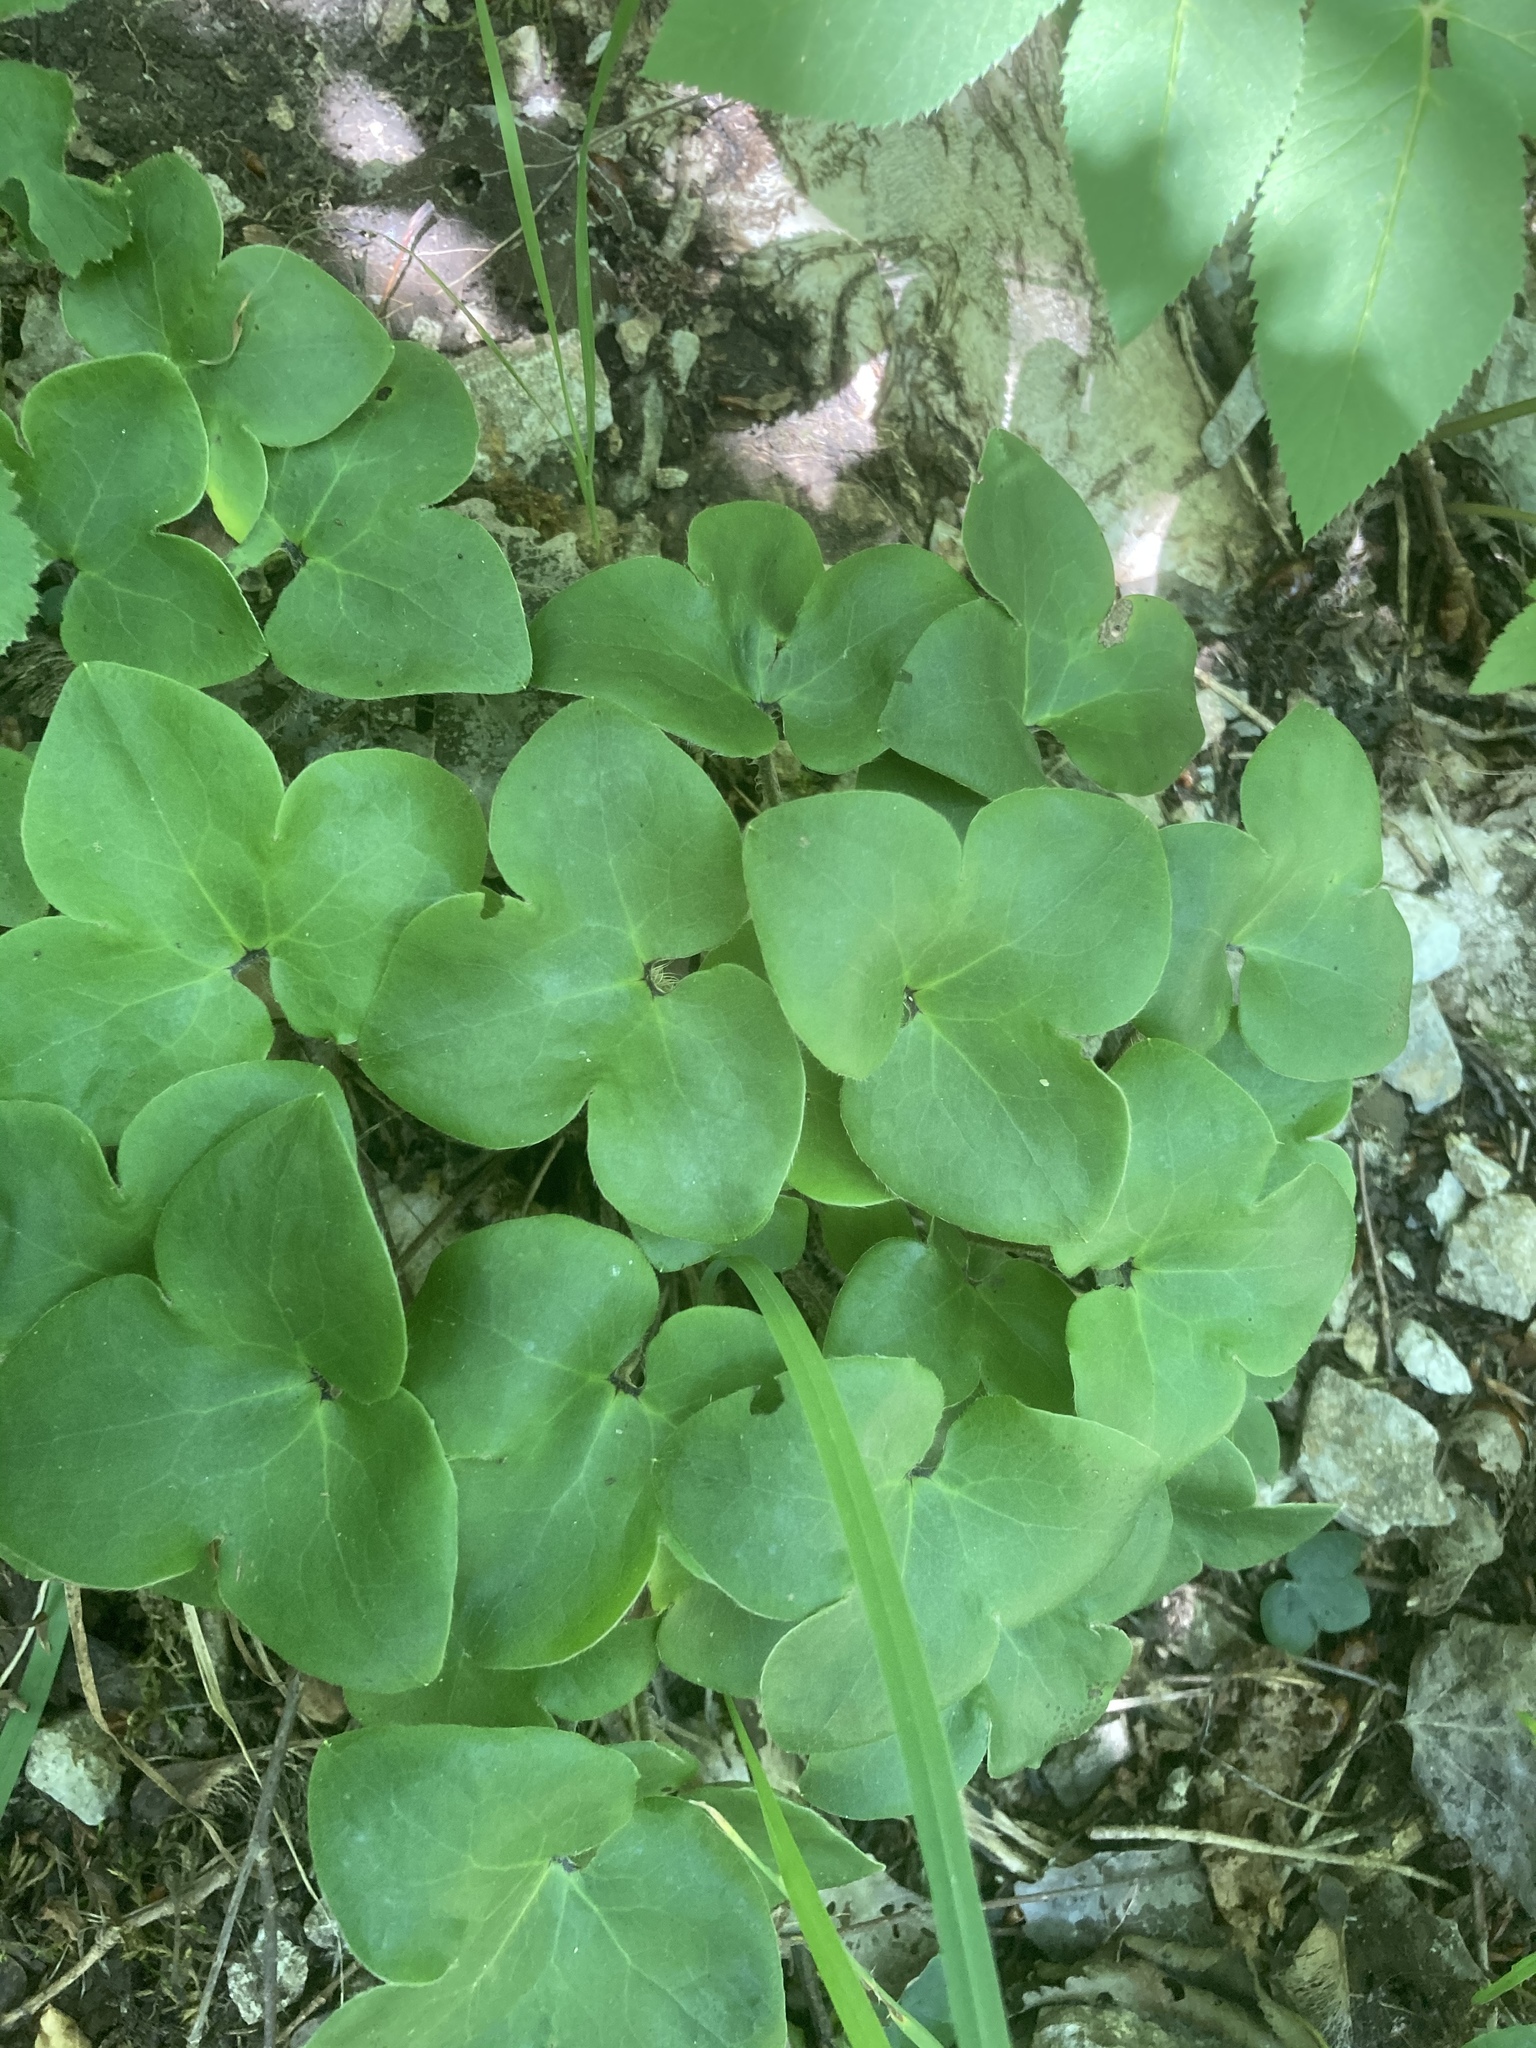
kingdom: Plantae
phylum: Tracheophyta
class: Magnoliopsida
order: Ranunculales
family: Ranunculaceae
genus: Hepatica
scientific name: Hepatica nobilis
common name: Liverleaf
